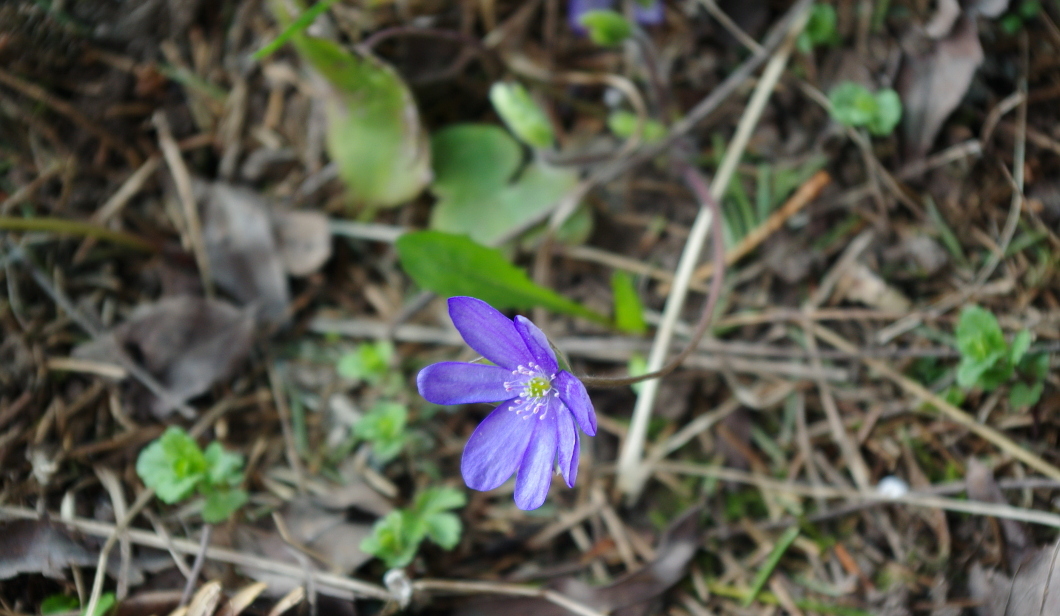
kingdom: Plantae
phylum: Tracheophyta
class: Magnoliopsida
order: Ranunculales
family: Ranunculaceae
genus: Hepatica
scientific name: Hepatica nobilis
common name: Liverleaf
